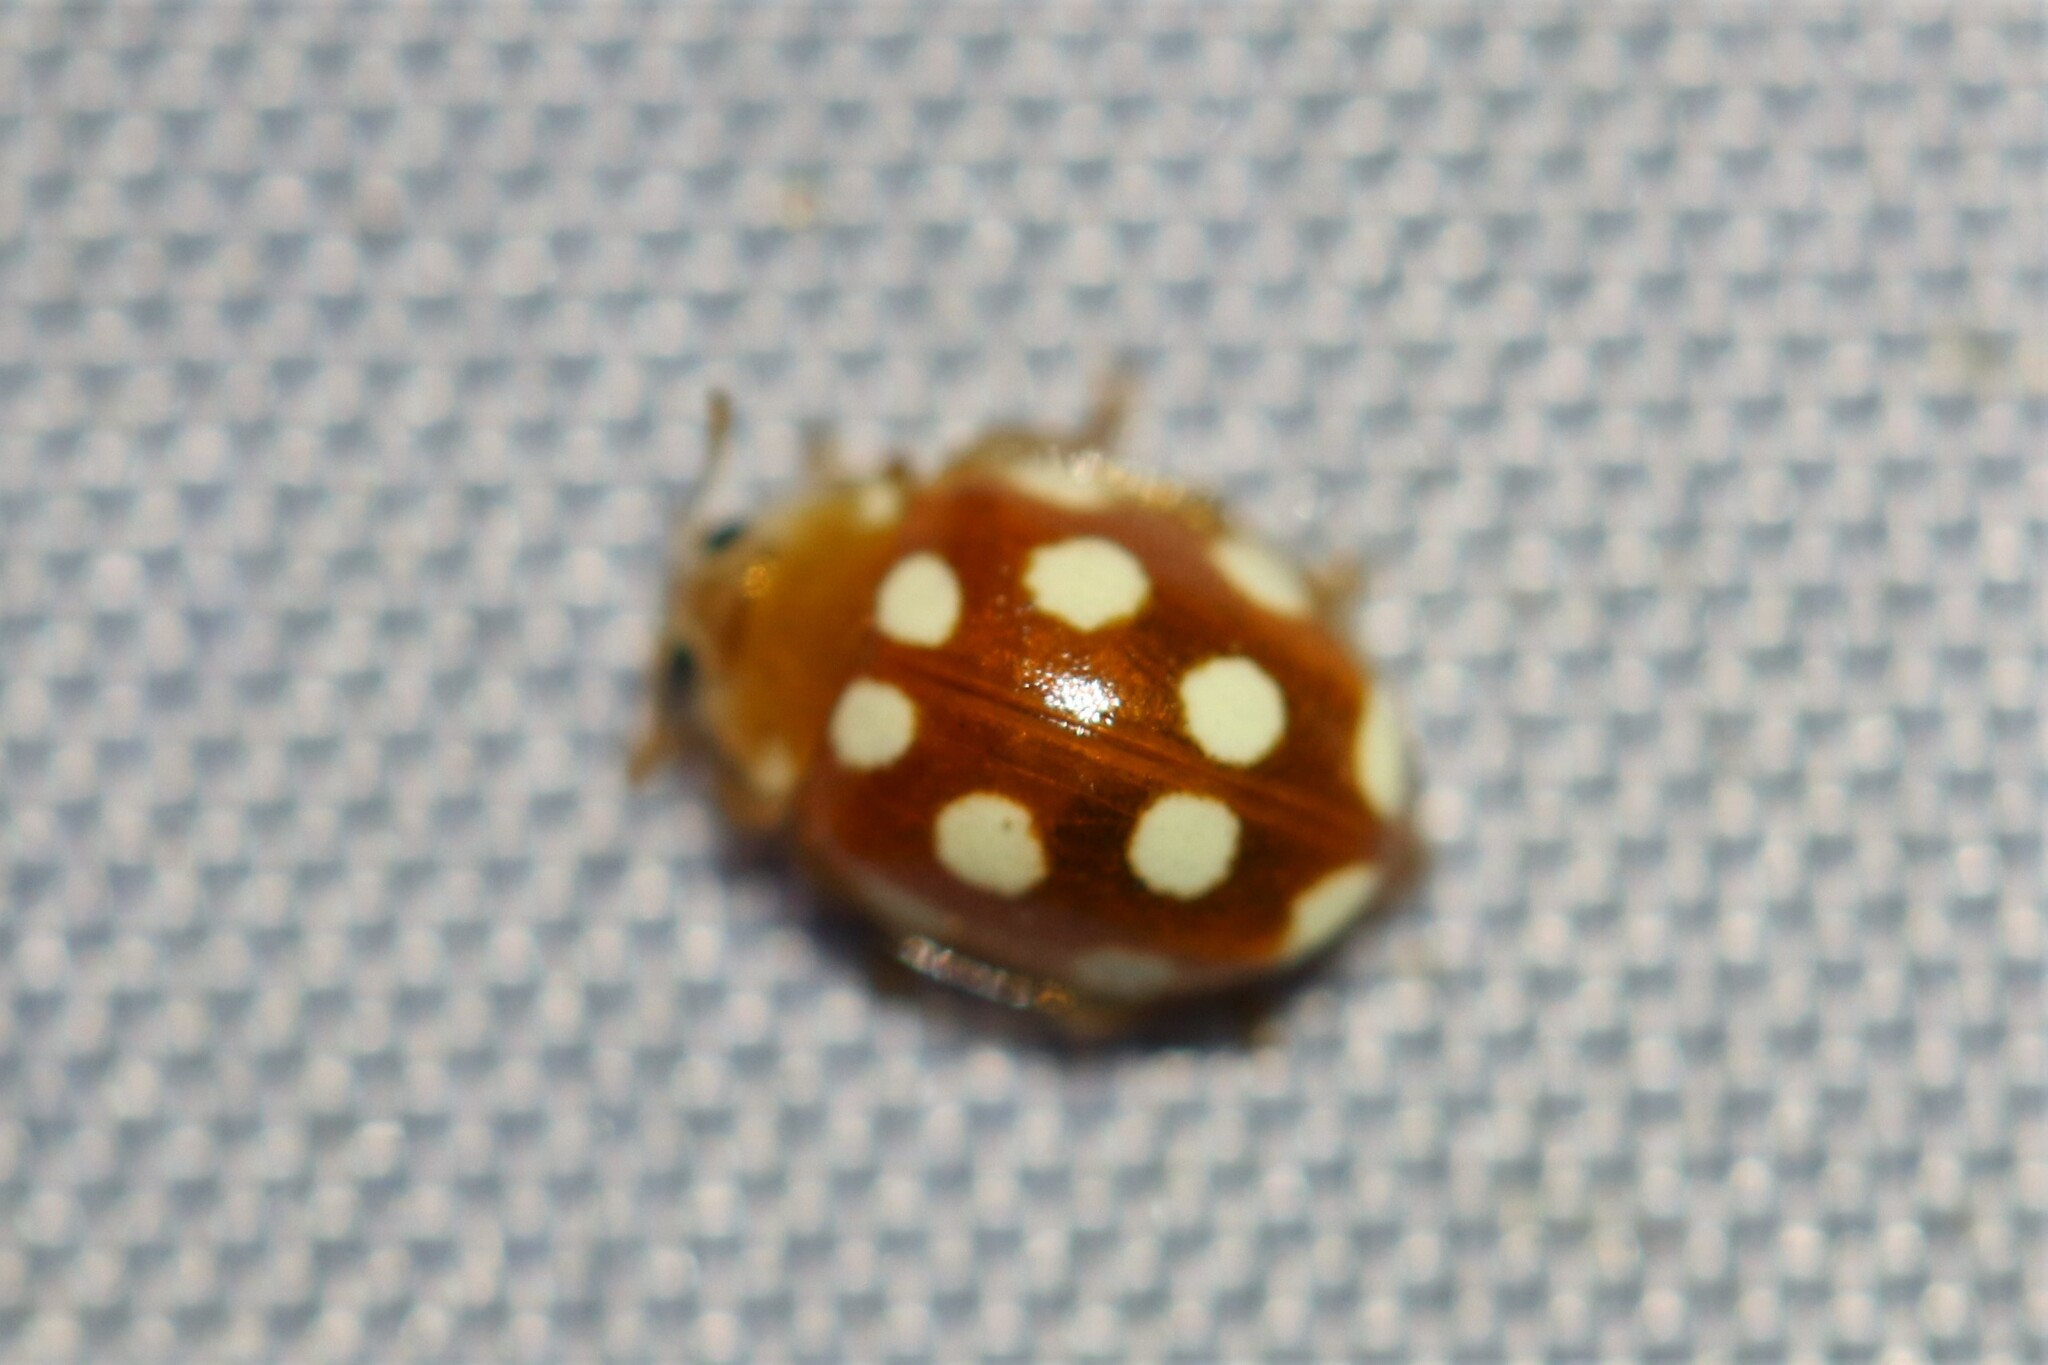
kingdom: Animalia
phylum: Arthropoda
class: Insecta
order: Coleoptera
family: Coccinellidae
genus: Vibidia
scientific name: Vibidia duodecimguttata
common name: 12-spot ladybird
